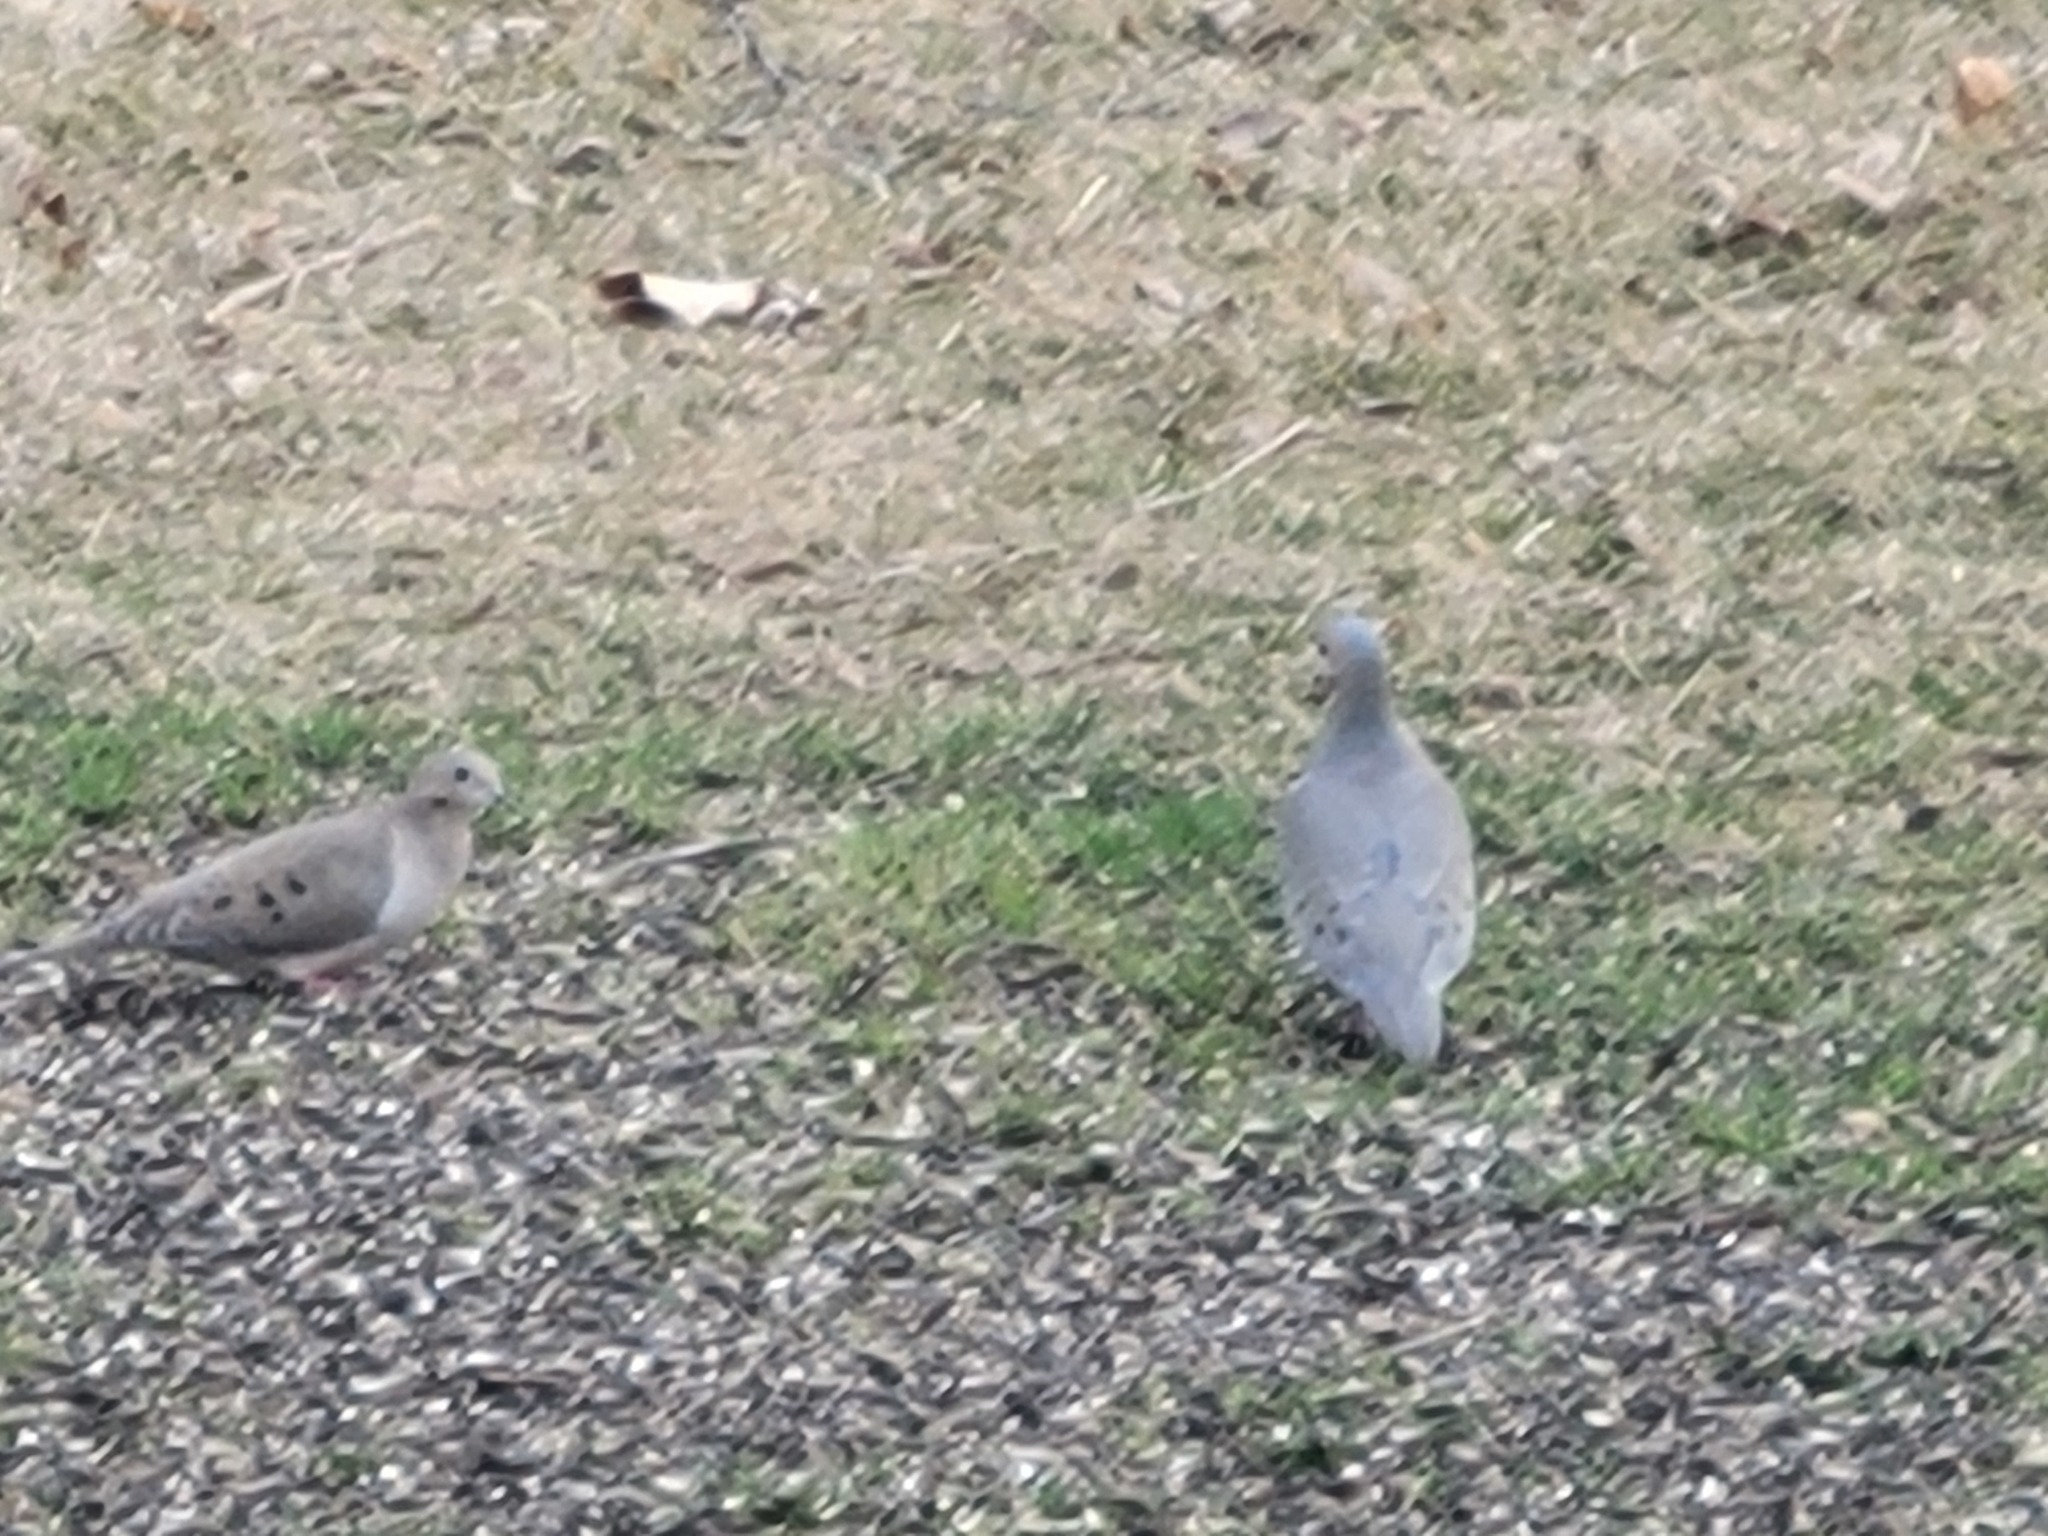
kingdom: Animalia
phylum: Chordata
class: Aves
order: Columbiformes
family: Columbidae
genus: Zenaida
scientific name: Zenaida macroura
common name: Mourning dove
